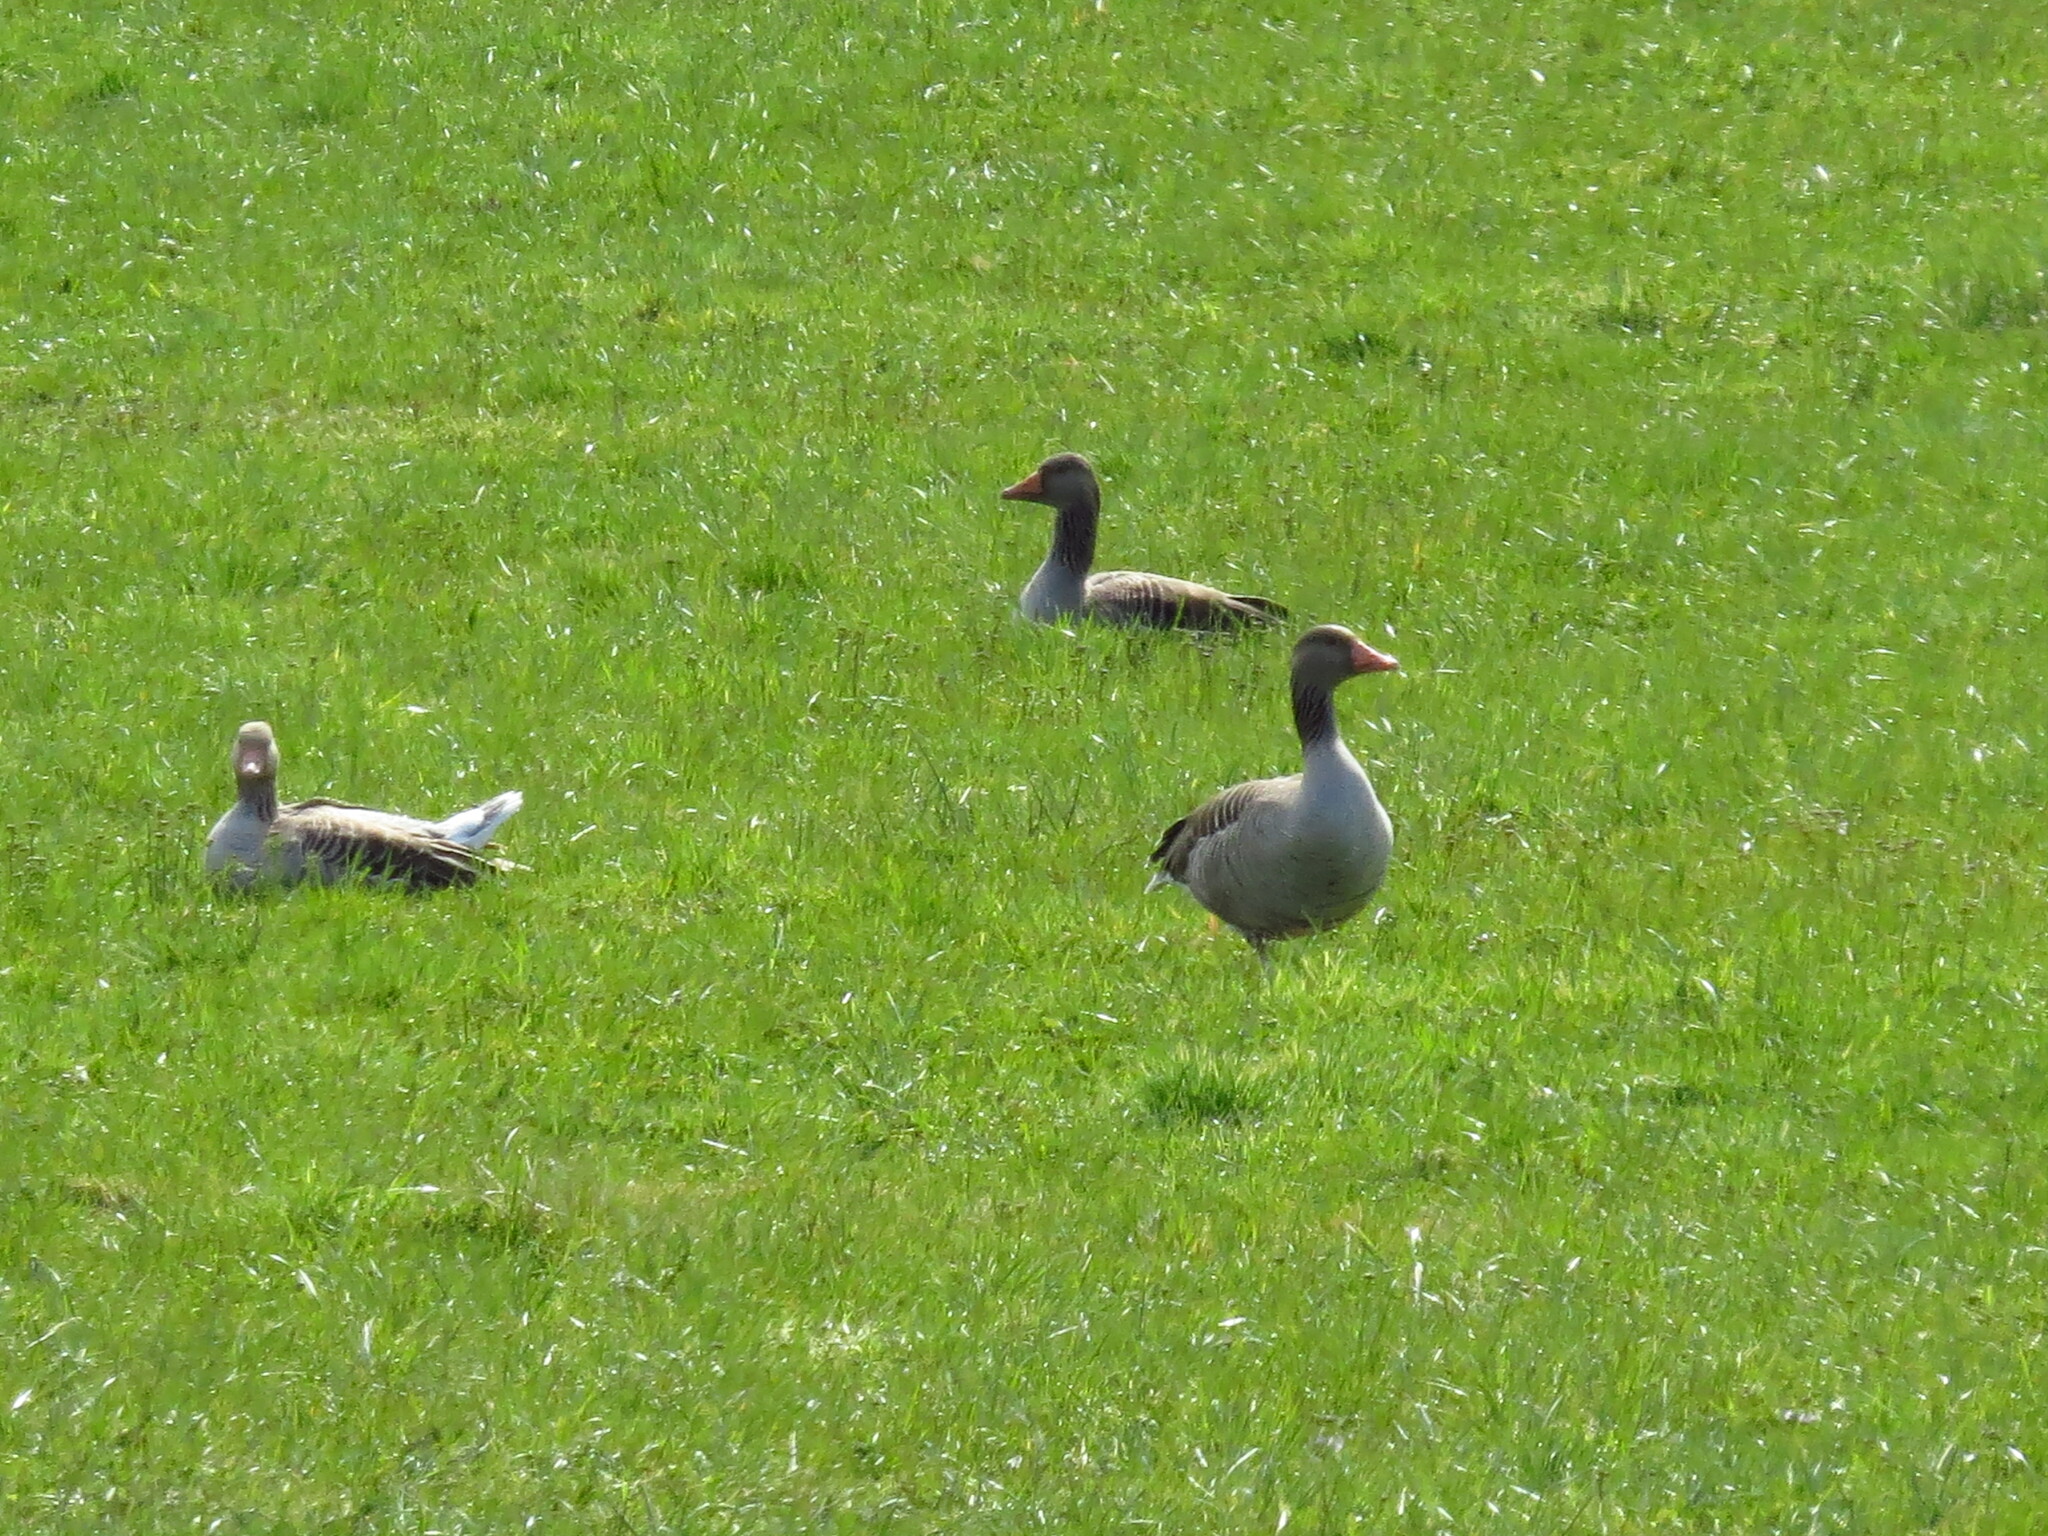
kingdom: Animalia
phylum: Chordata
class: Aves
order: Anseriformes
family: Anatidae
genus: Anser
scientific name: Anser anser
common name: Greylag goose
